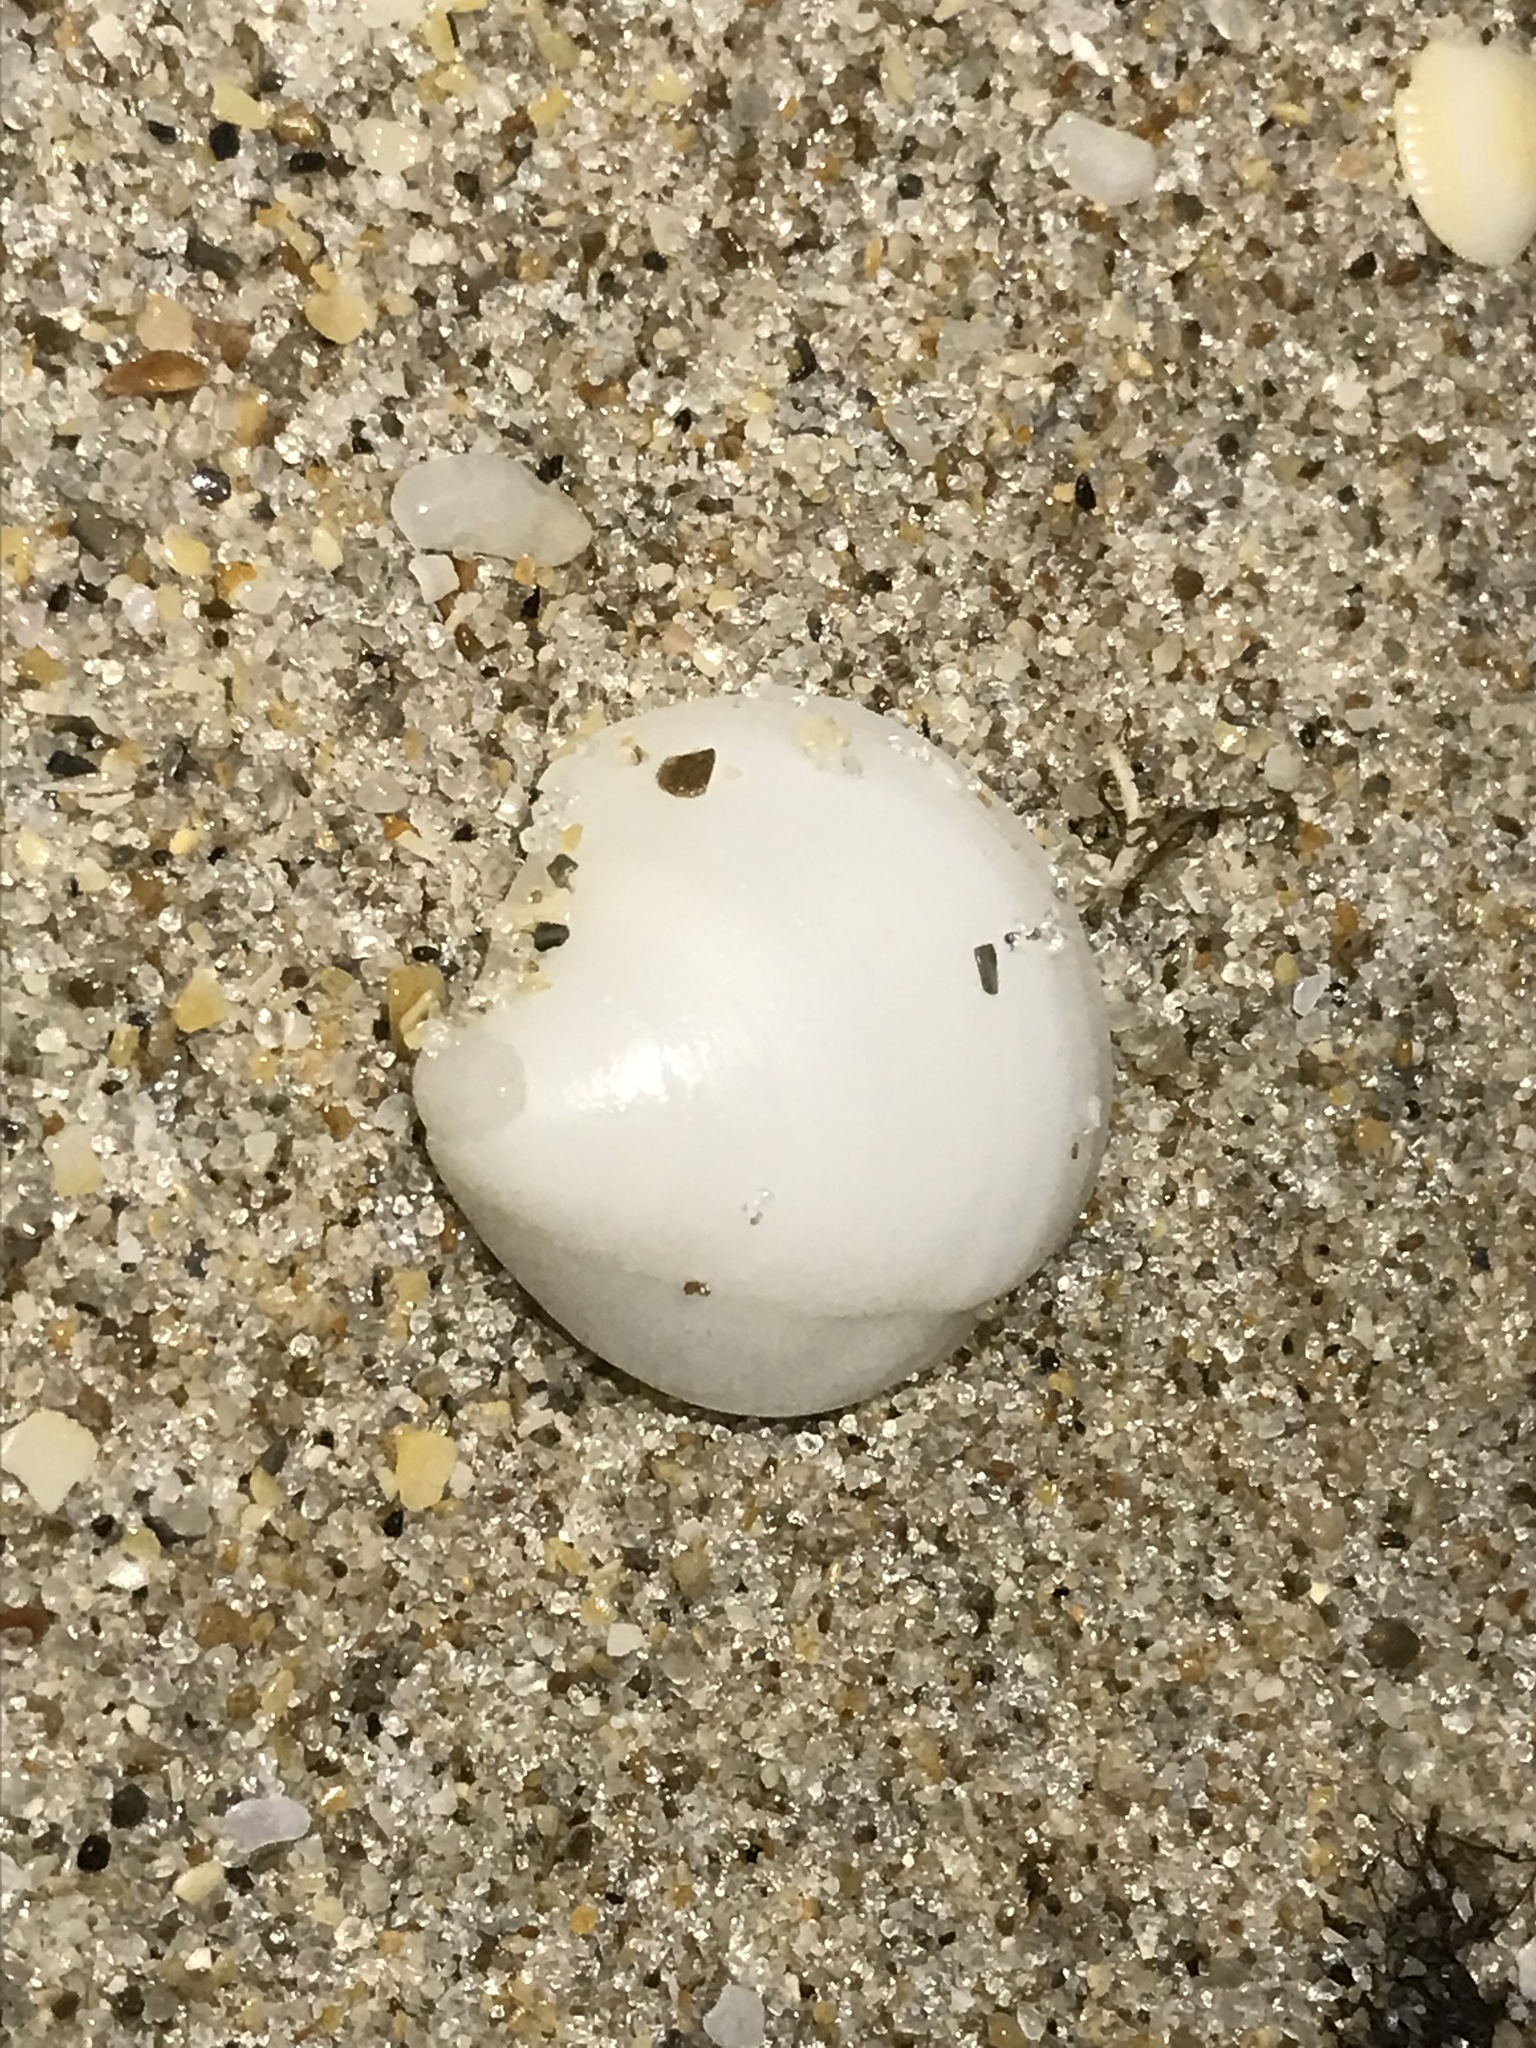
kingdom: Animalia
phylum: Mollusca
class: Bivalvia
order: Lucinida
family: Lucinidae
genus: Lucina
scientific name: Lucina pensylvanica
